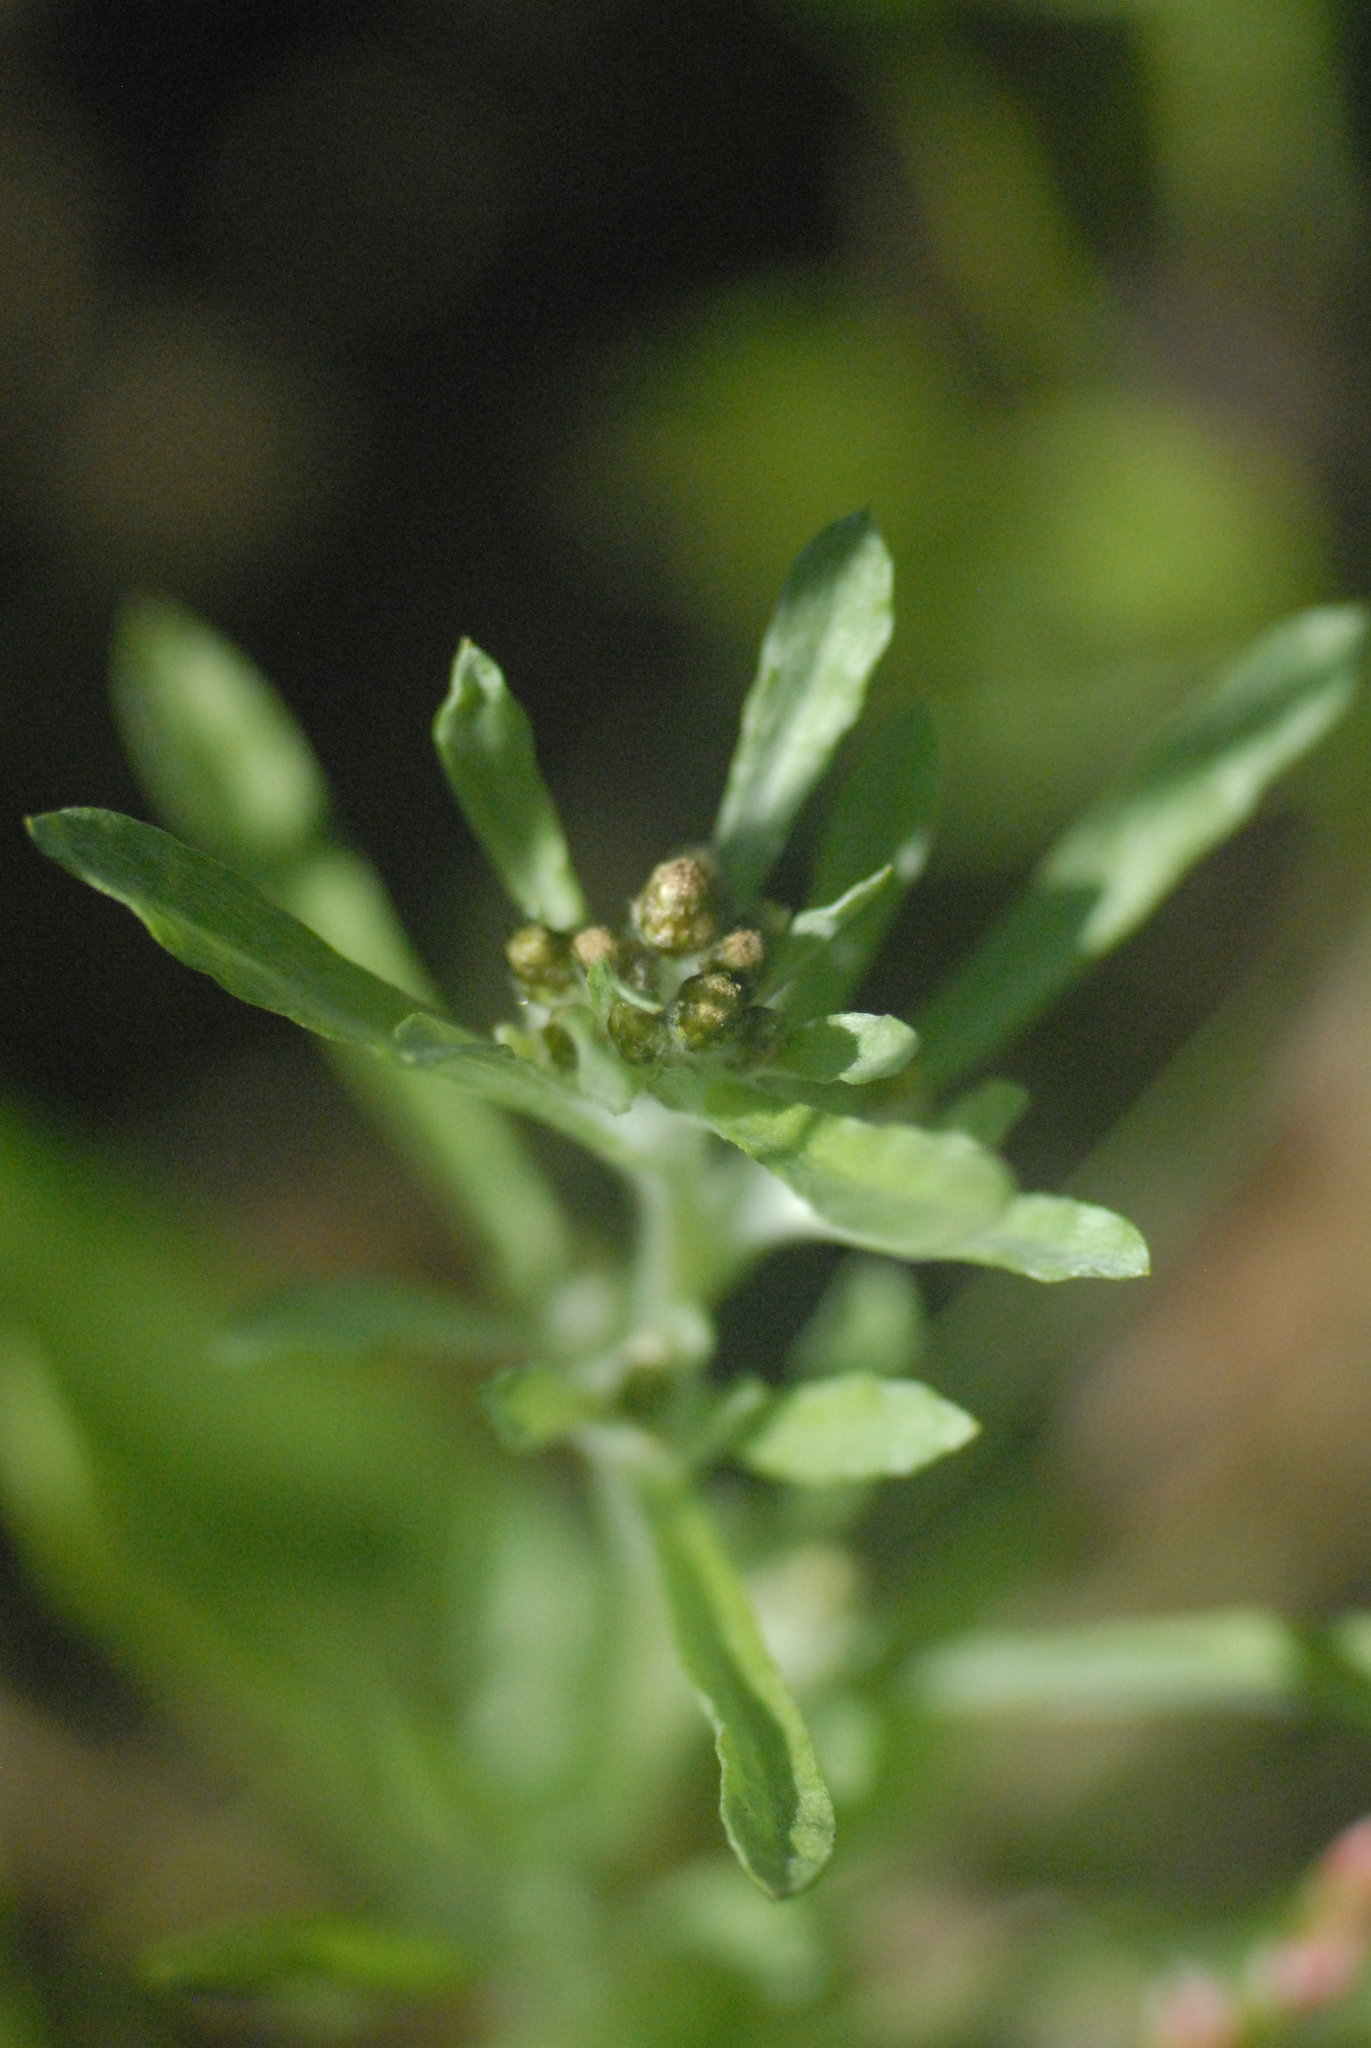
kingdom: Plantae
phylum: Tracheophyta
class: Magnoliopsida
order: Asterales
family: Asteraceae
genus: Gnaphalium
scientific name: Gnaphalium uliginosum
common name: Marsh cudweed
